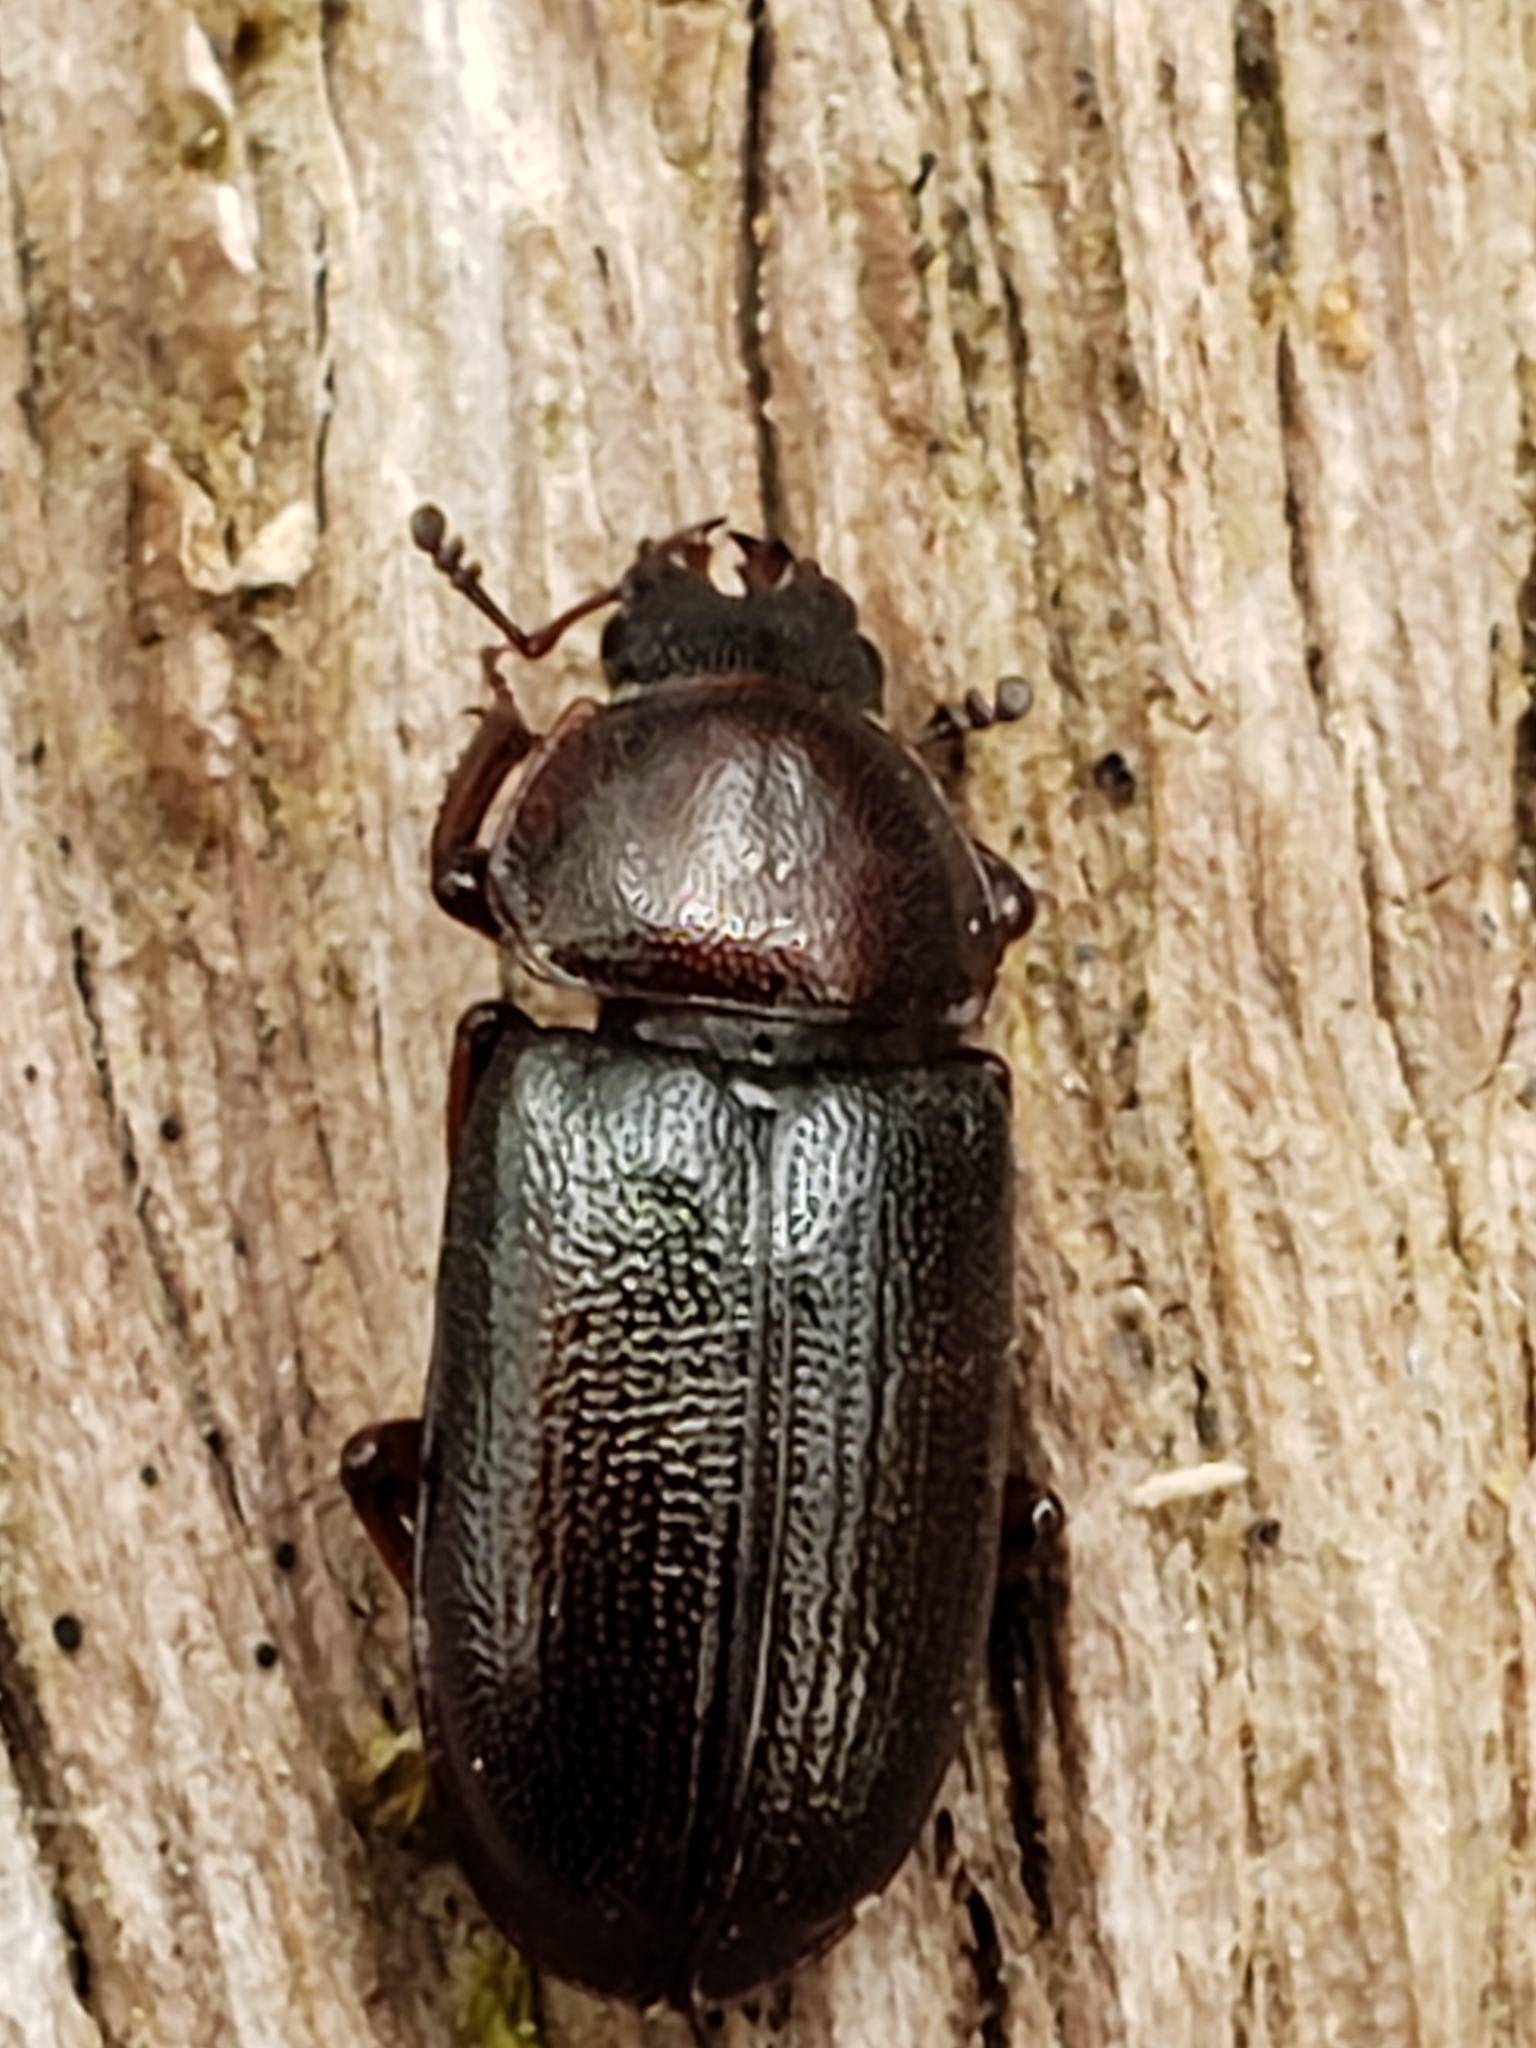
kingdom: Animalia
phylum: Arthropoda
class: Insecta
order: Coleoptera
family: Lucanidae
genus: Platycerus
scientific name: Platycerus quercus
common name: Oak stag beetle
